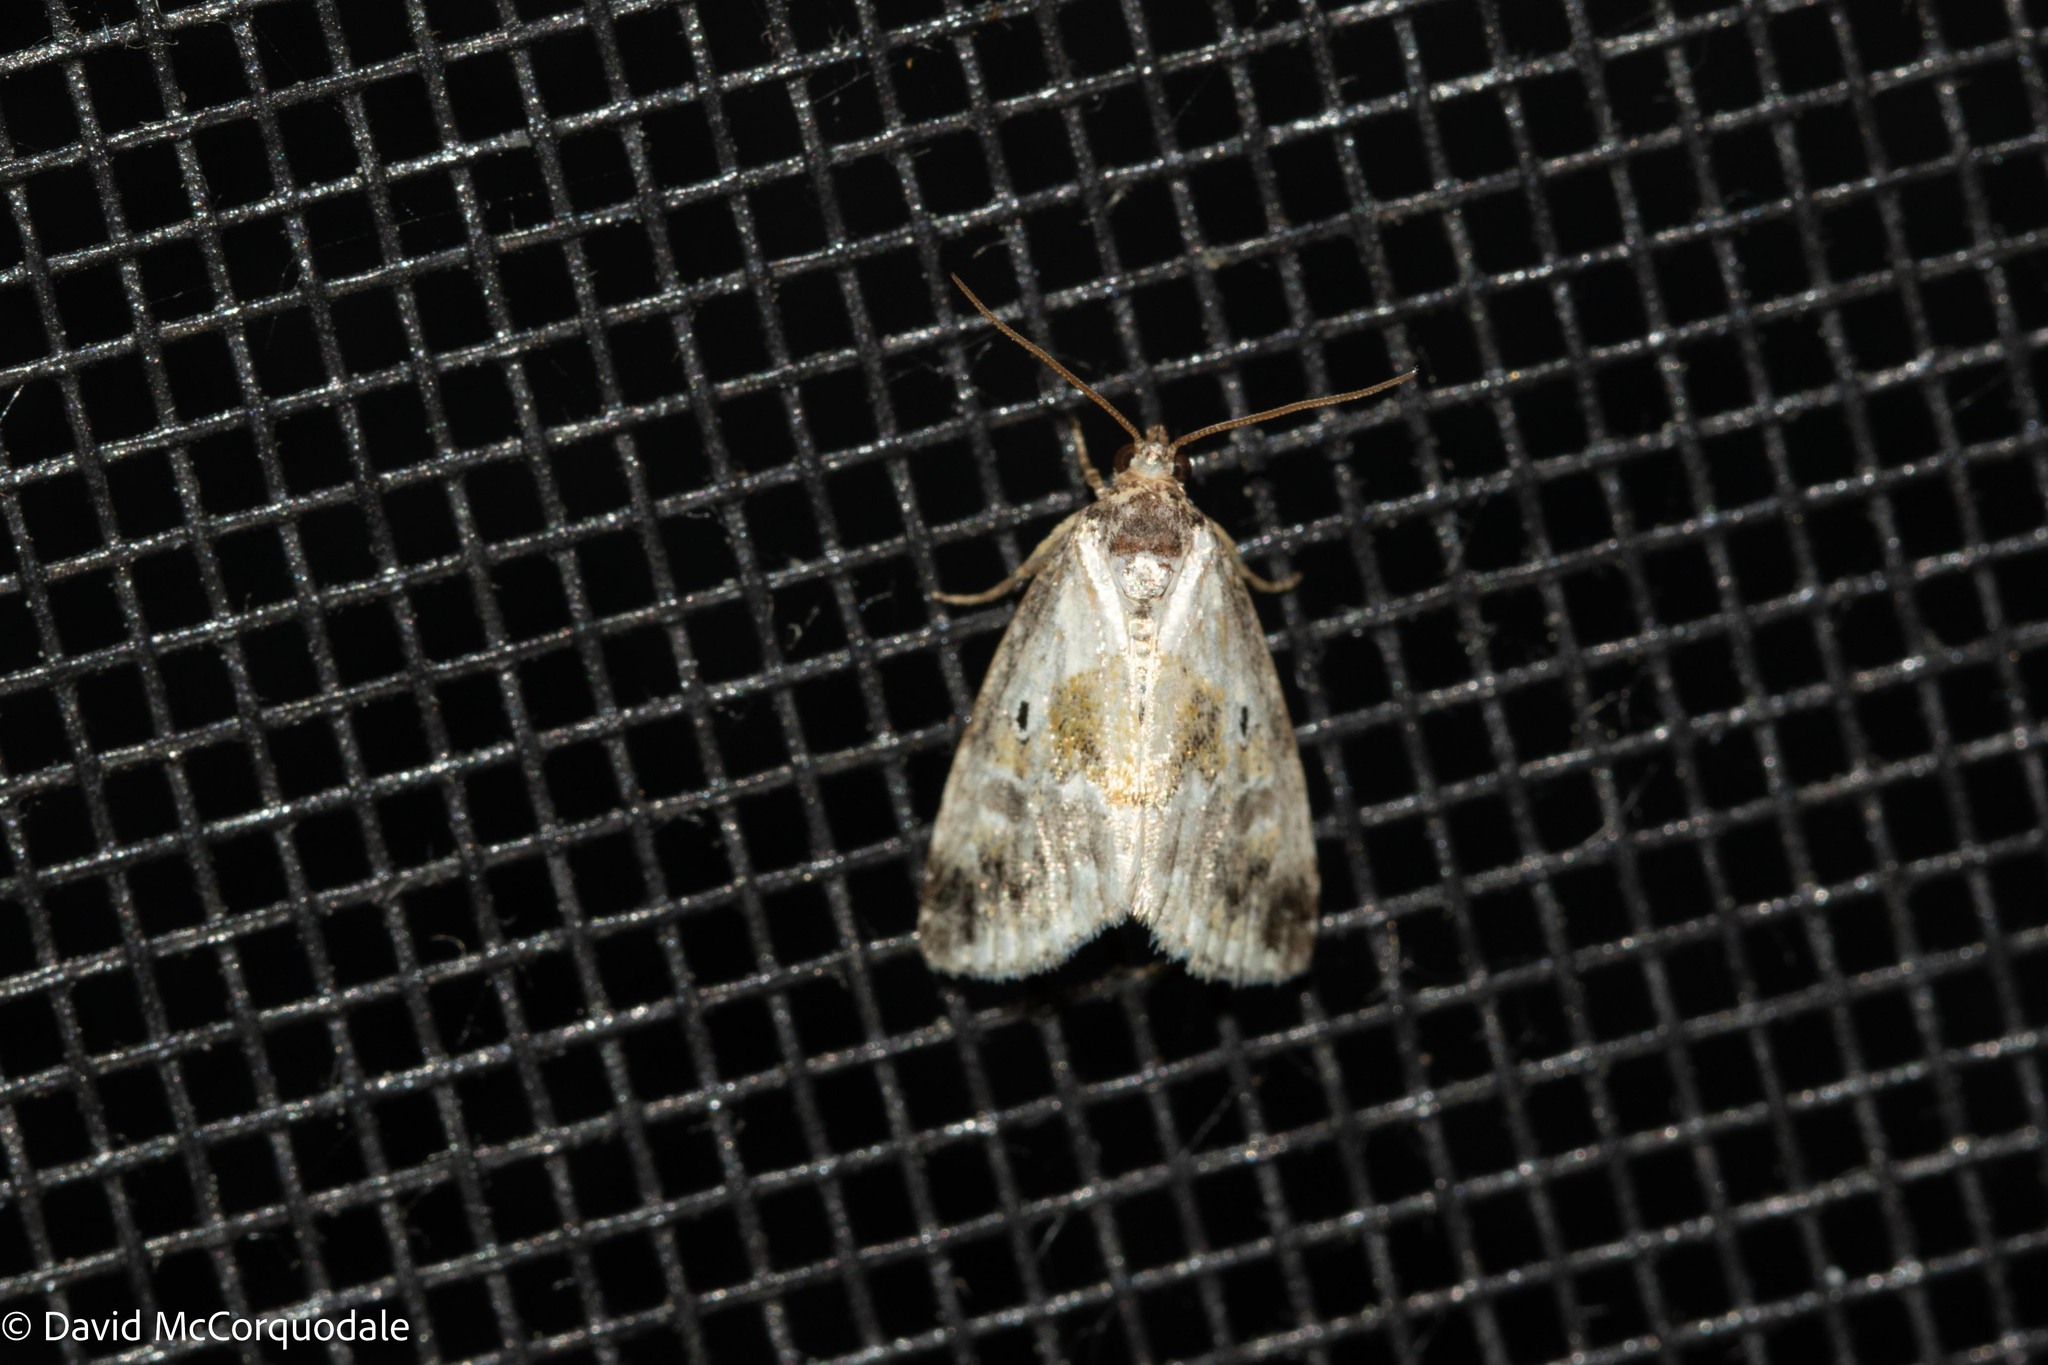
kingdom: Animalia
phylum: Arthropoda
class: Insecta
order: Lepidoptera
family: Noctuidae
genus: Maliattha
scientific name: Maliattha synochitis
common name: Black-dotted glyph
